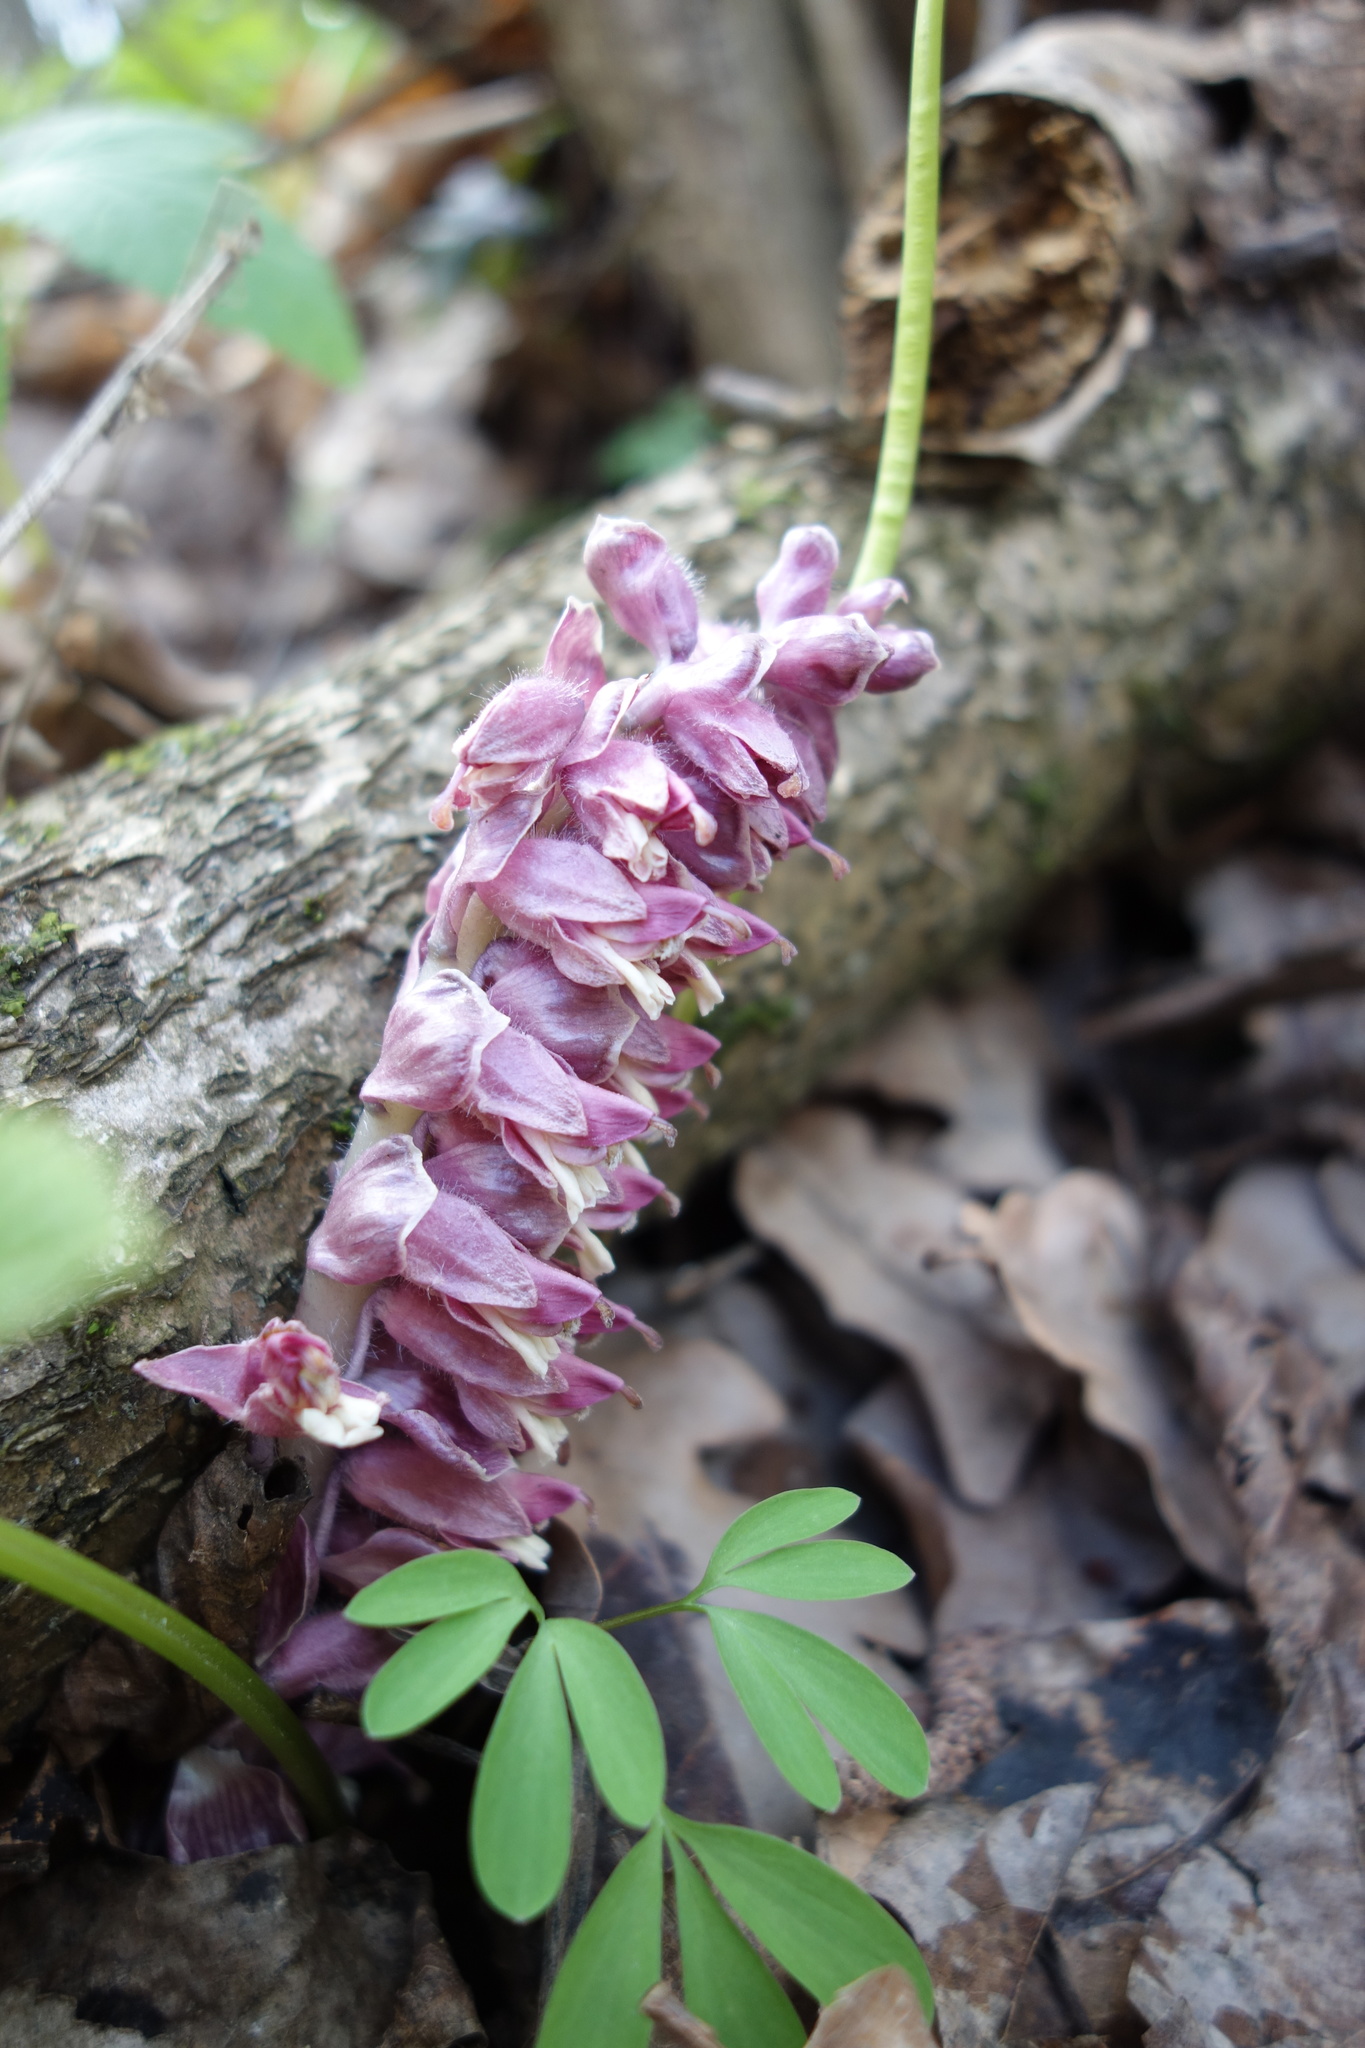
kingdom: Plantae
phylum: Tracheophyta
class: Magnoliopsida
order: Lamiales
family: Orobanchaceae
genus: Lathraea
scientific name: Lathraea squamaria
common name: Toothwort
